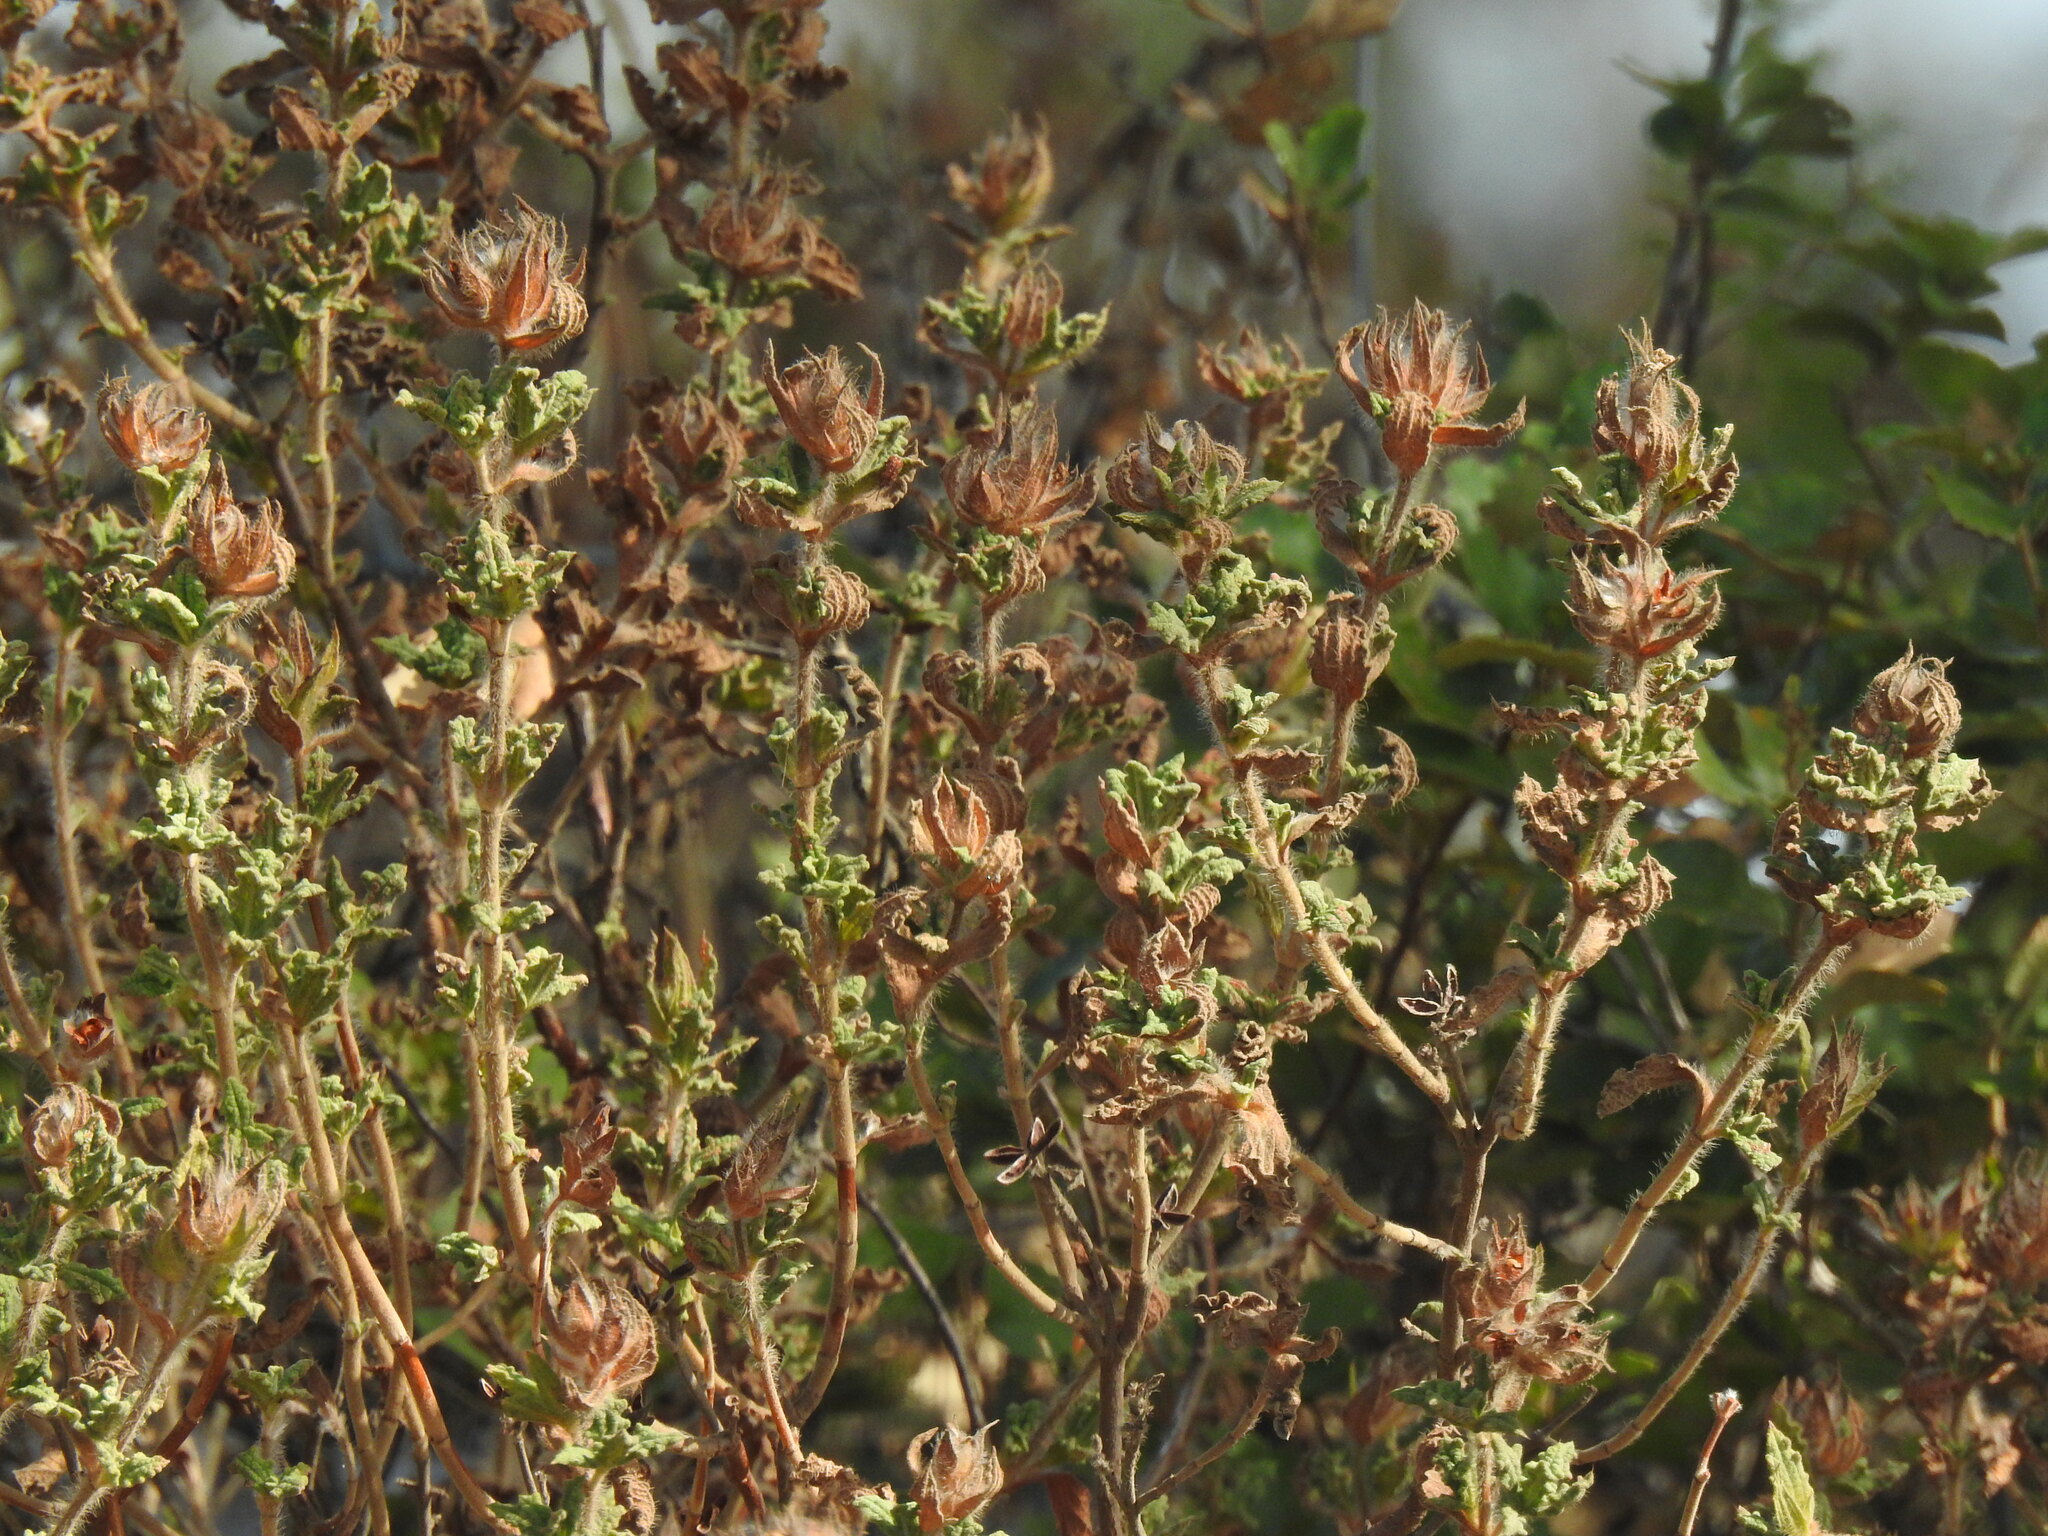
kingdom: Plantae
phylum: Tracheophyta
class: Magnoliopsida
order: Malvales
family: Cistaceae
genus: Cistus
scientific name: Cistus crispus
